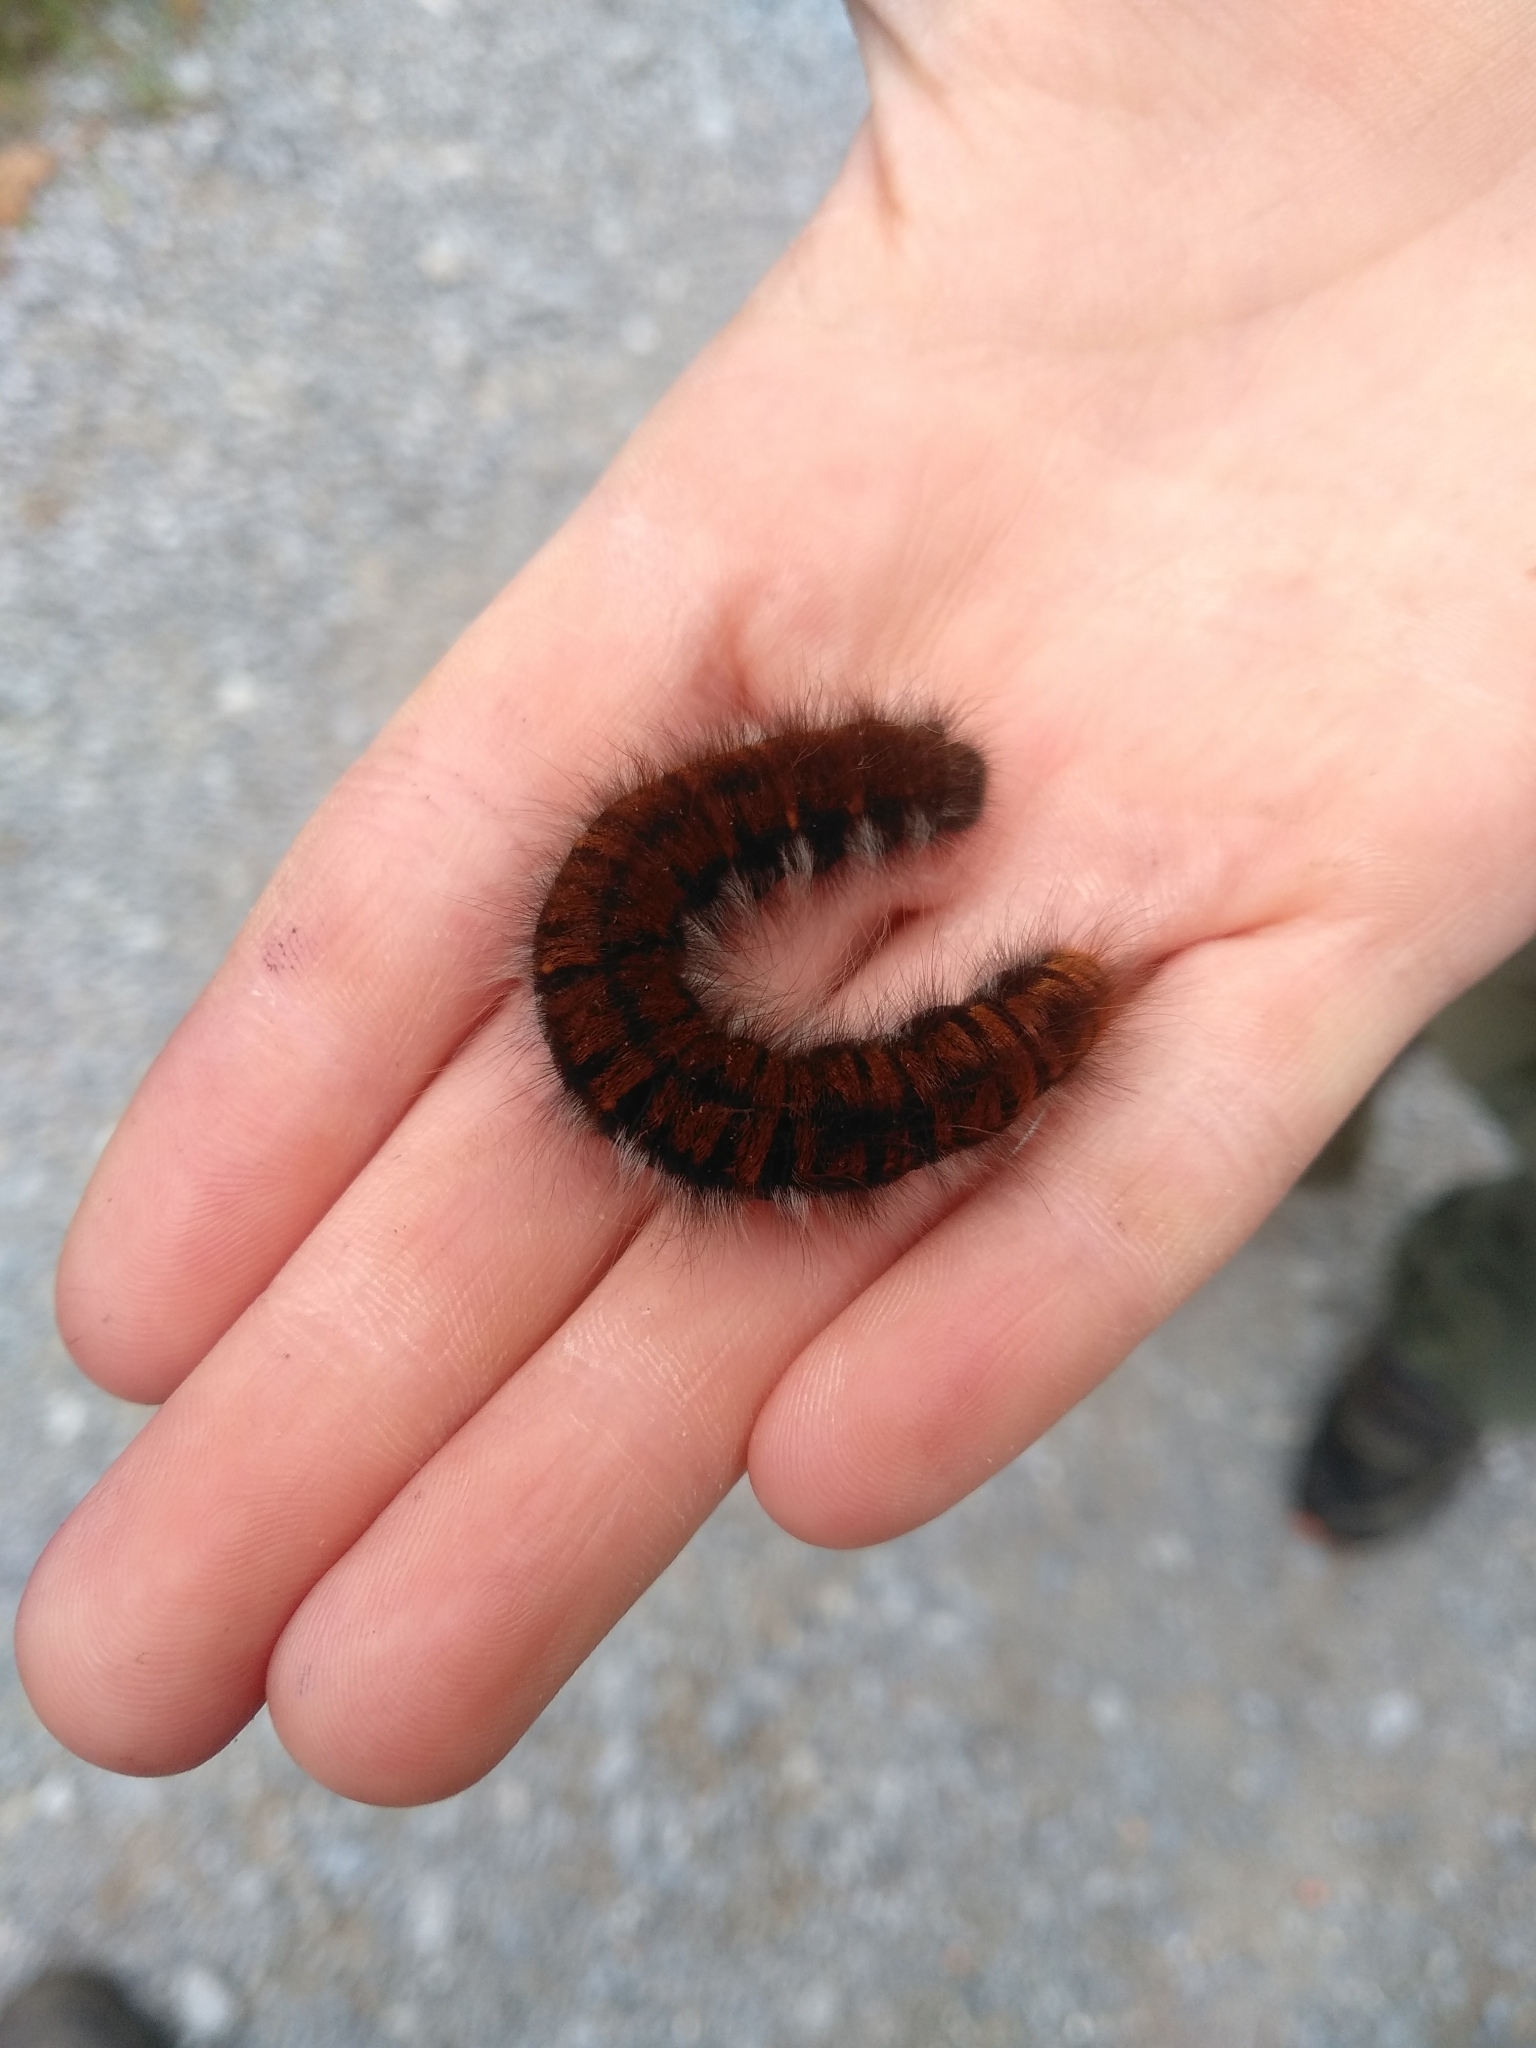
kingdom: Animalia
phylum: Arthropoda
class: Insecta
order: Lepidoptera
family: Lasiocampidae
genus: Macrothylacia
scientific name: Macrothylacia rubi
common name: Fox moth
